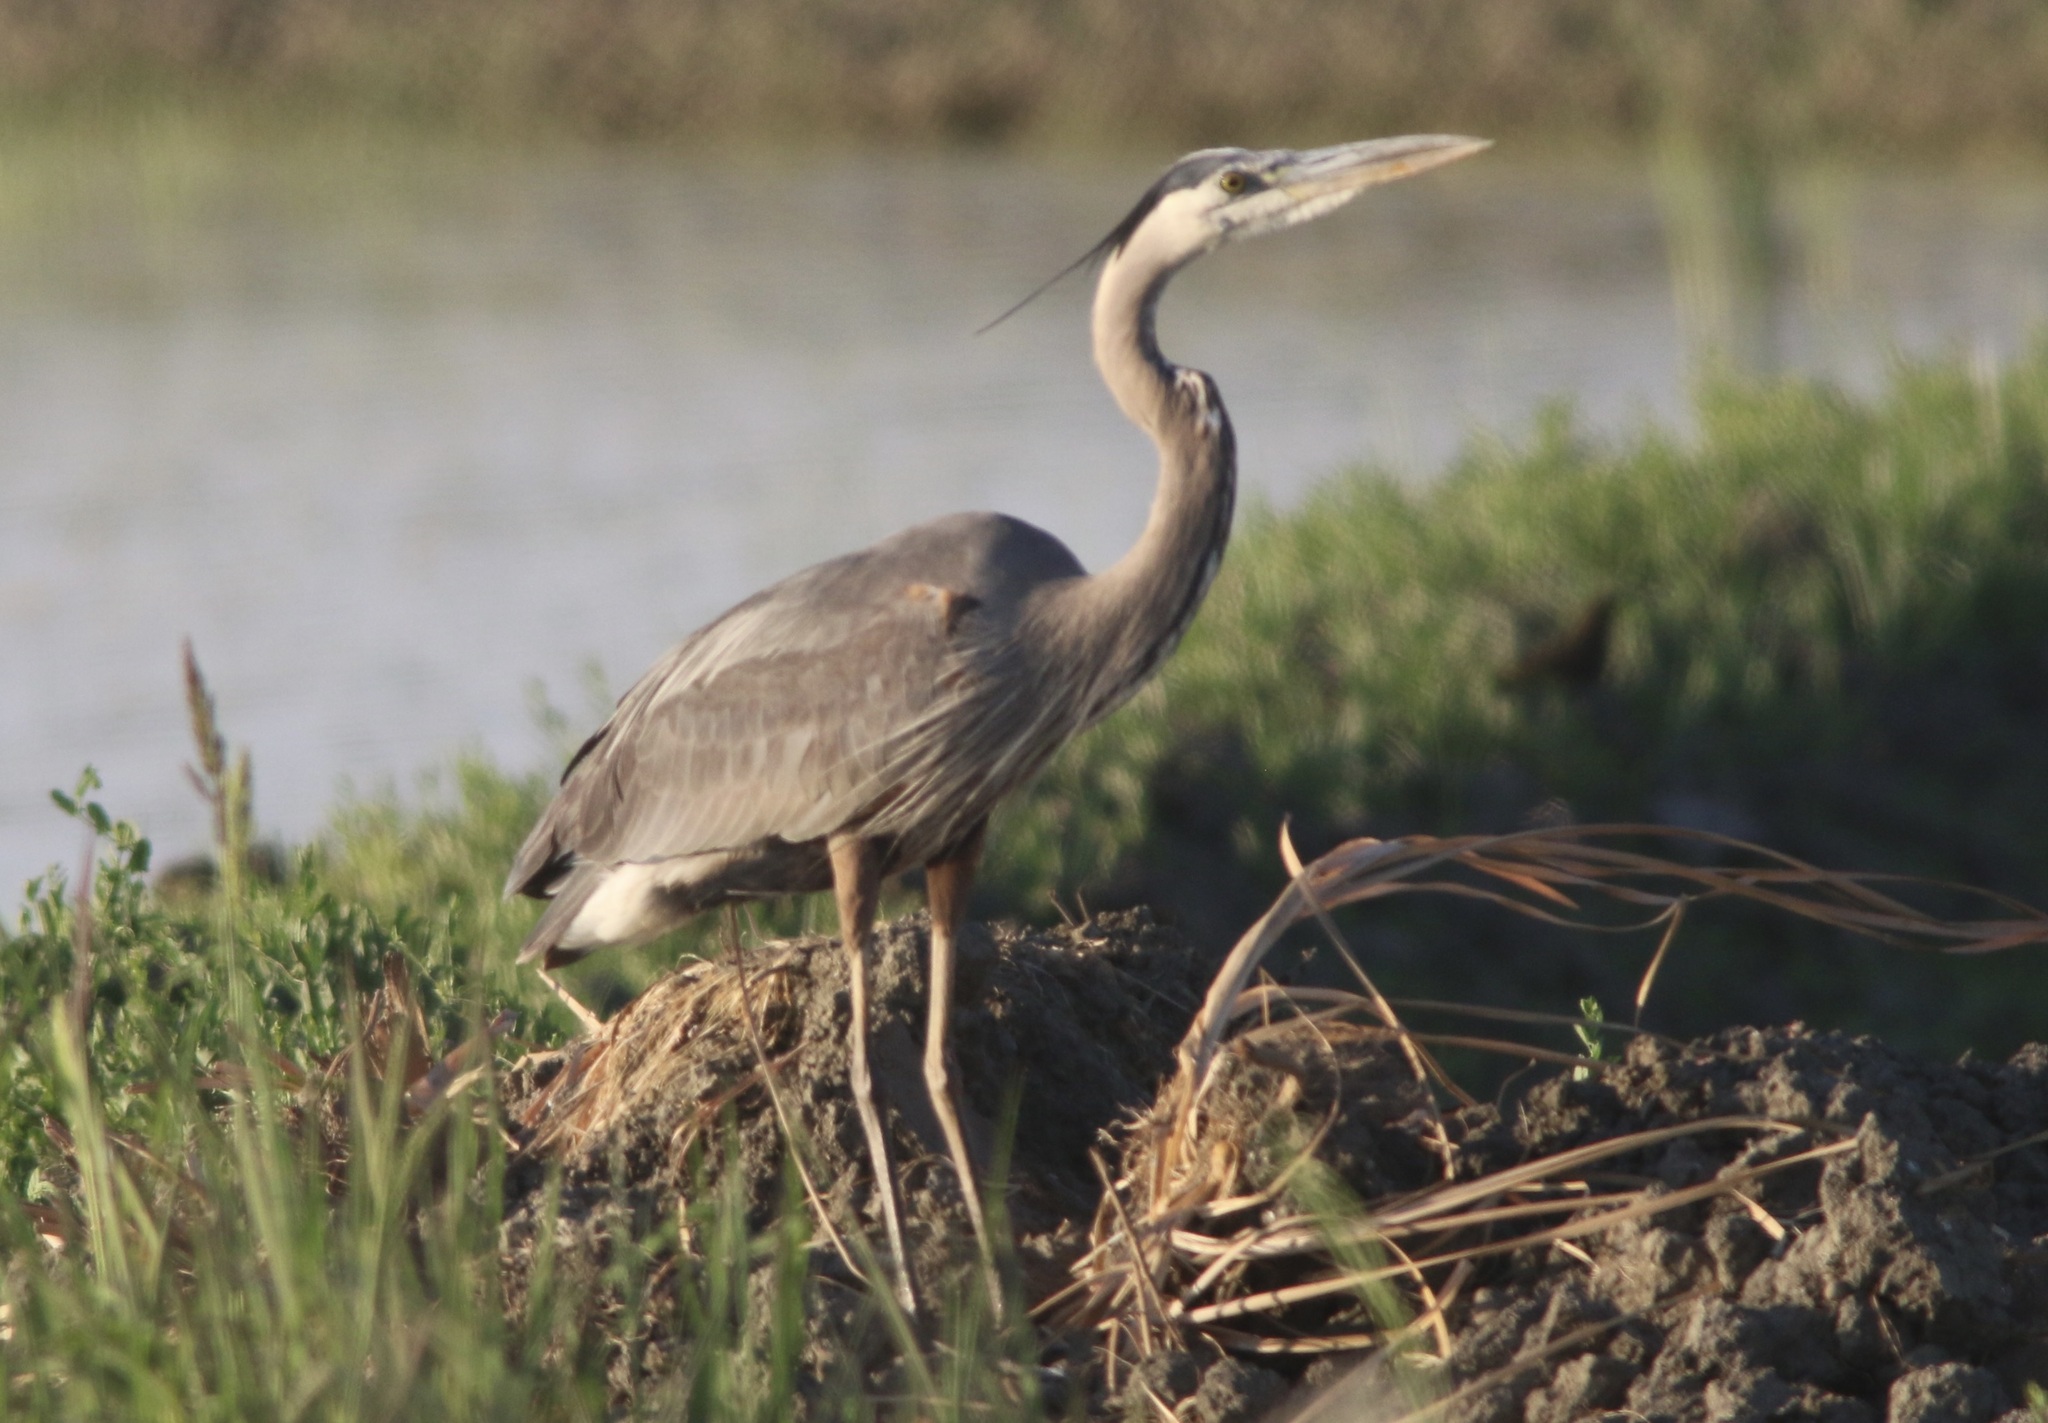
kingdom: Animalia
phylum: Chordata
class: Aves
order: Pelecaniformes
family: Ardeidae
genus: Ardea
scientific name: Ardea herodias
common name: Great blue heron
